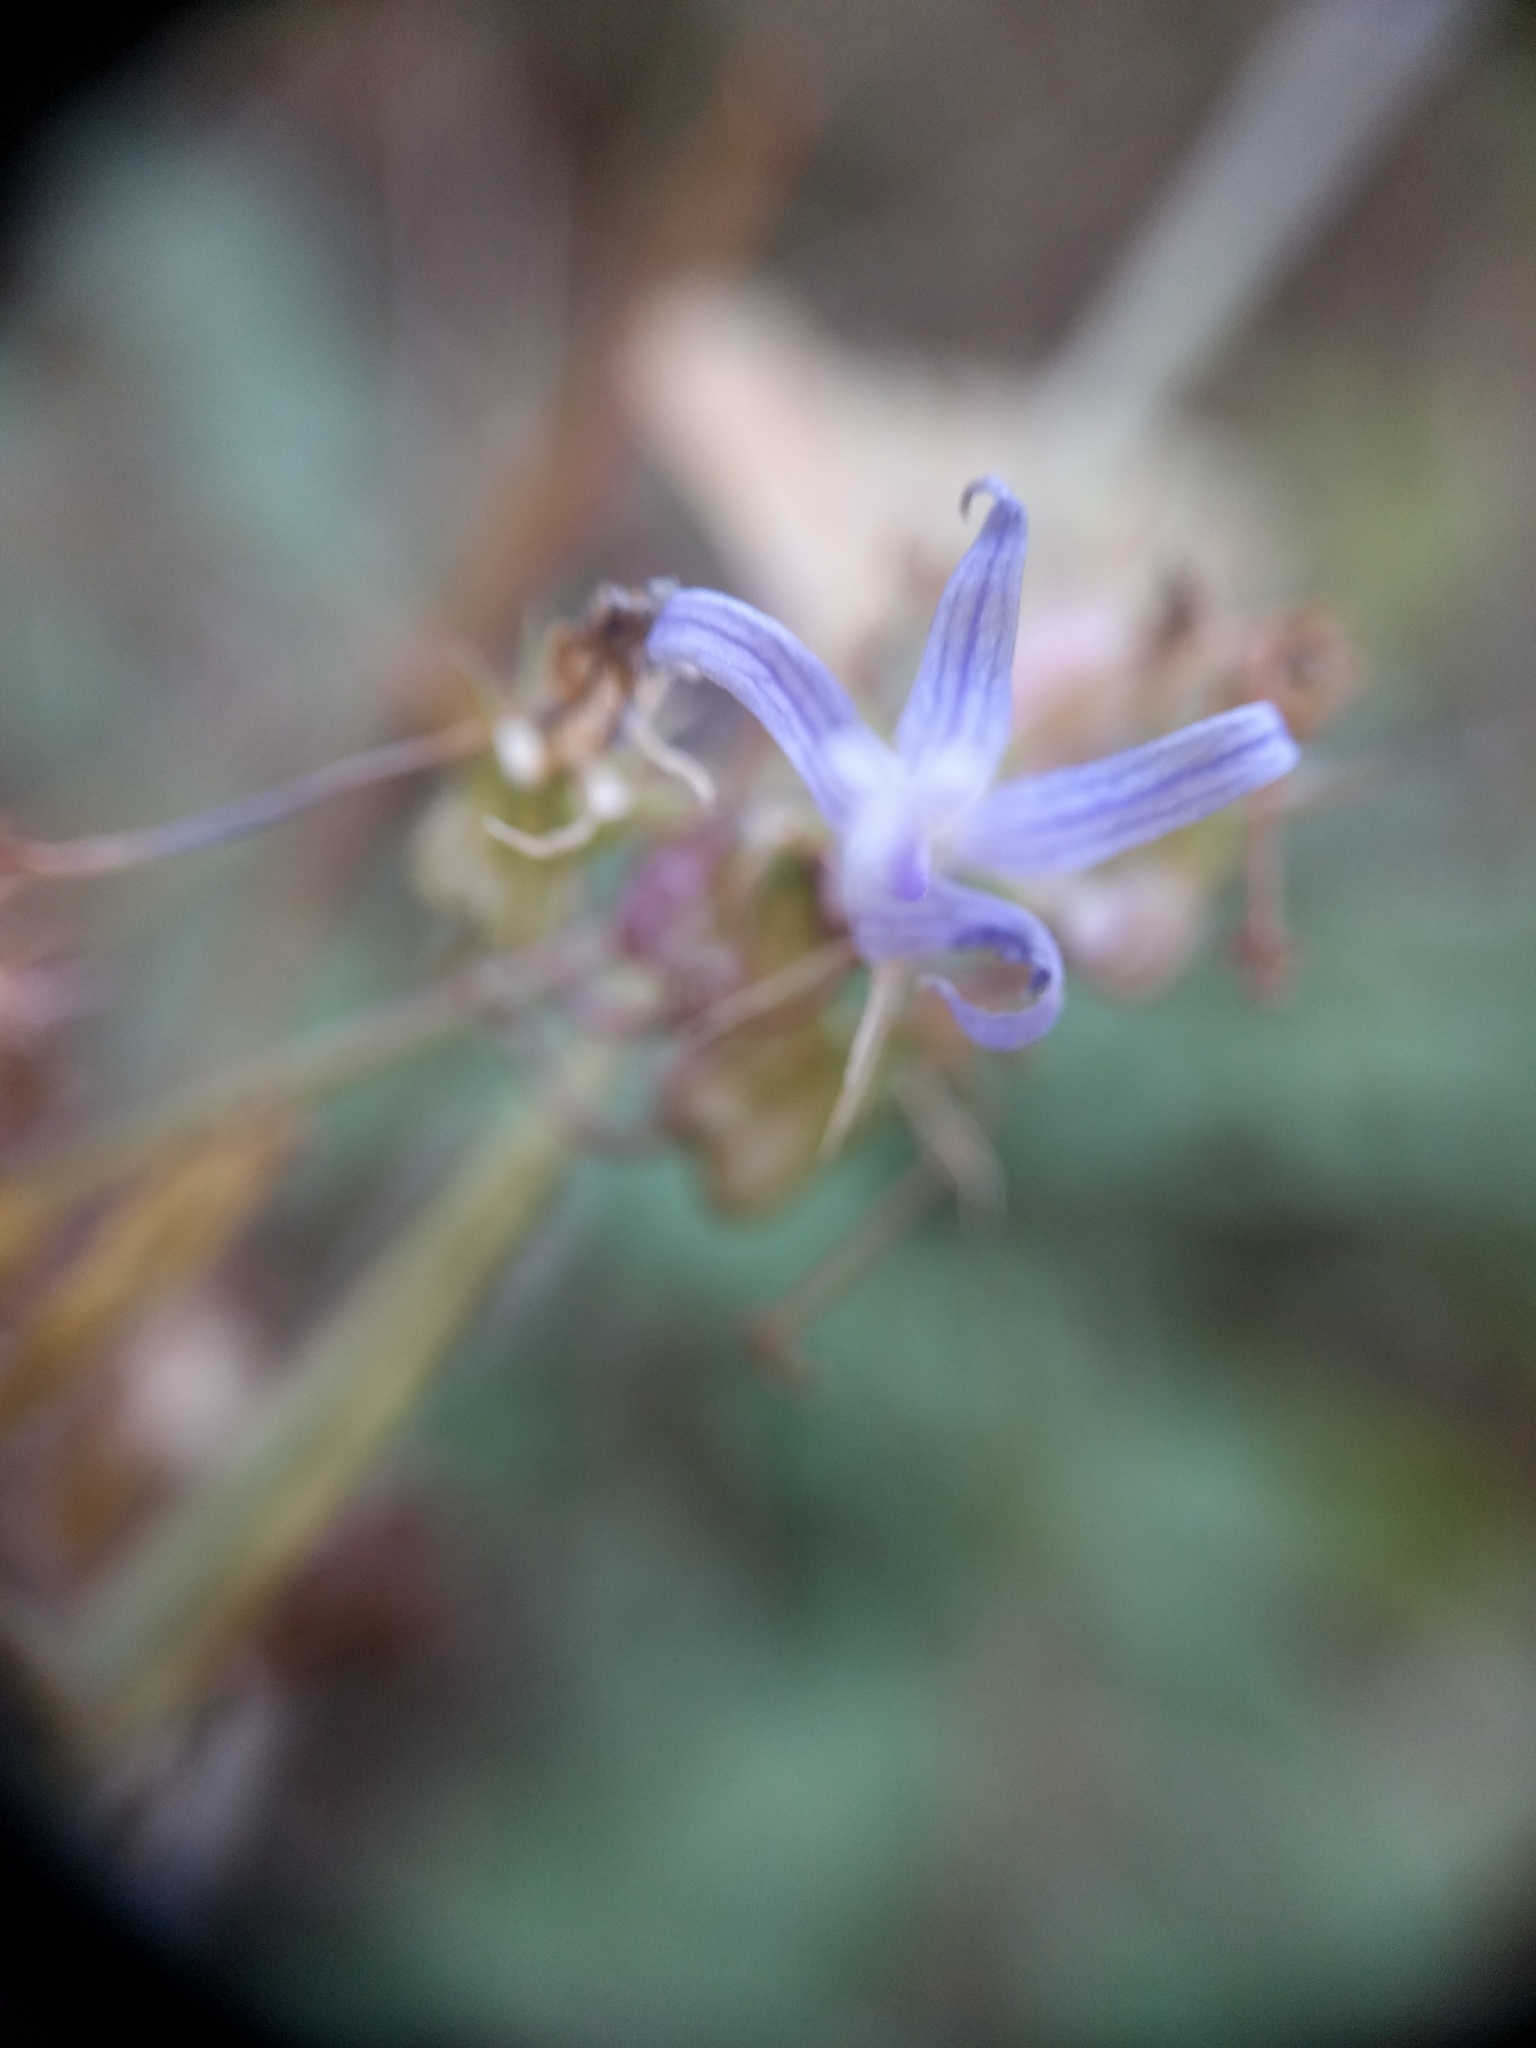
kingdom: Plantae
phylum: Tracheophyta
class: Magnoliopsida
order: Asterales
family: Campanulaceae
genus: Smithiastrum
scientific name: Smithiastrum prenanthoides
